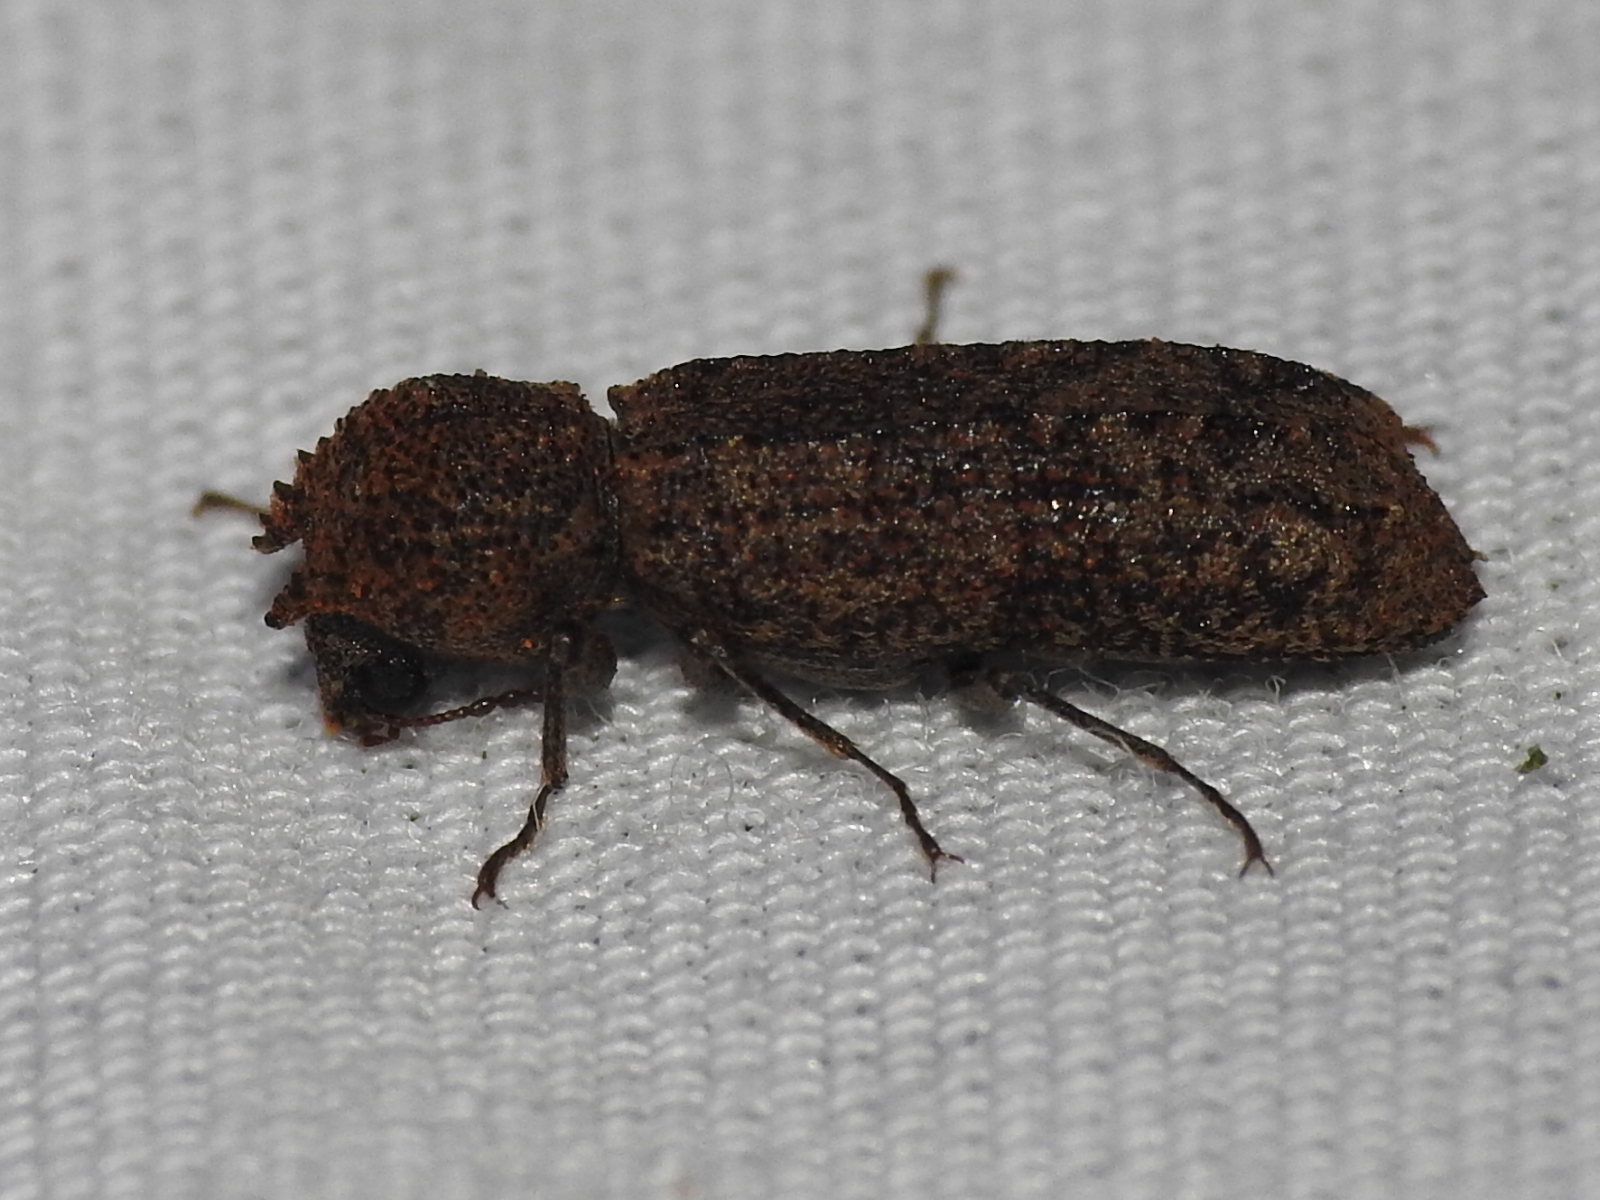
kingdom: Animalia
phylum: Arthropoda
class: Insecta
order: Coleoptera
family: Bostrichidae
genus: Lichenophanes
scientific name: Lichenophanes bicornis
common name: Two-horned powder-post beetle
